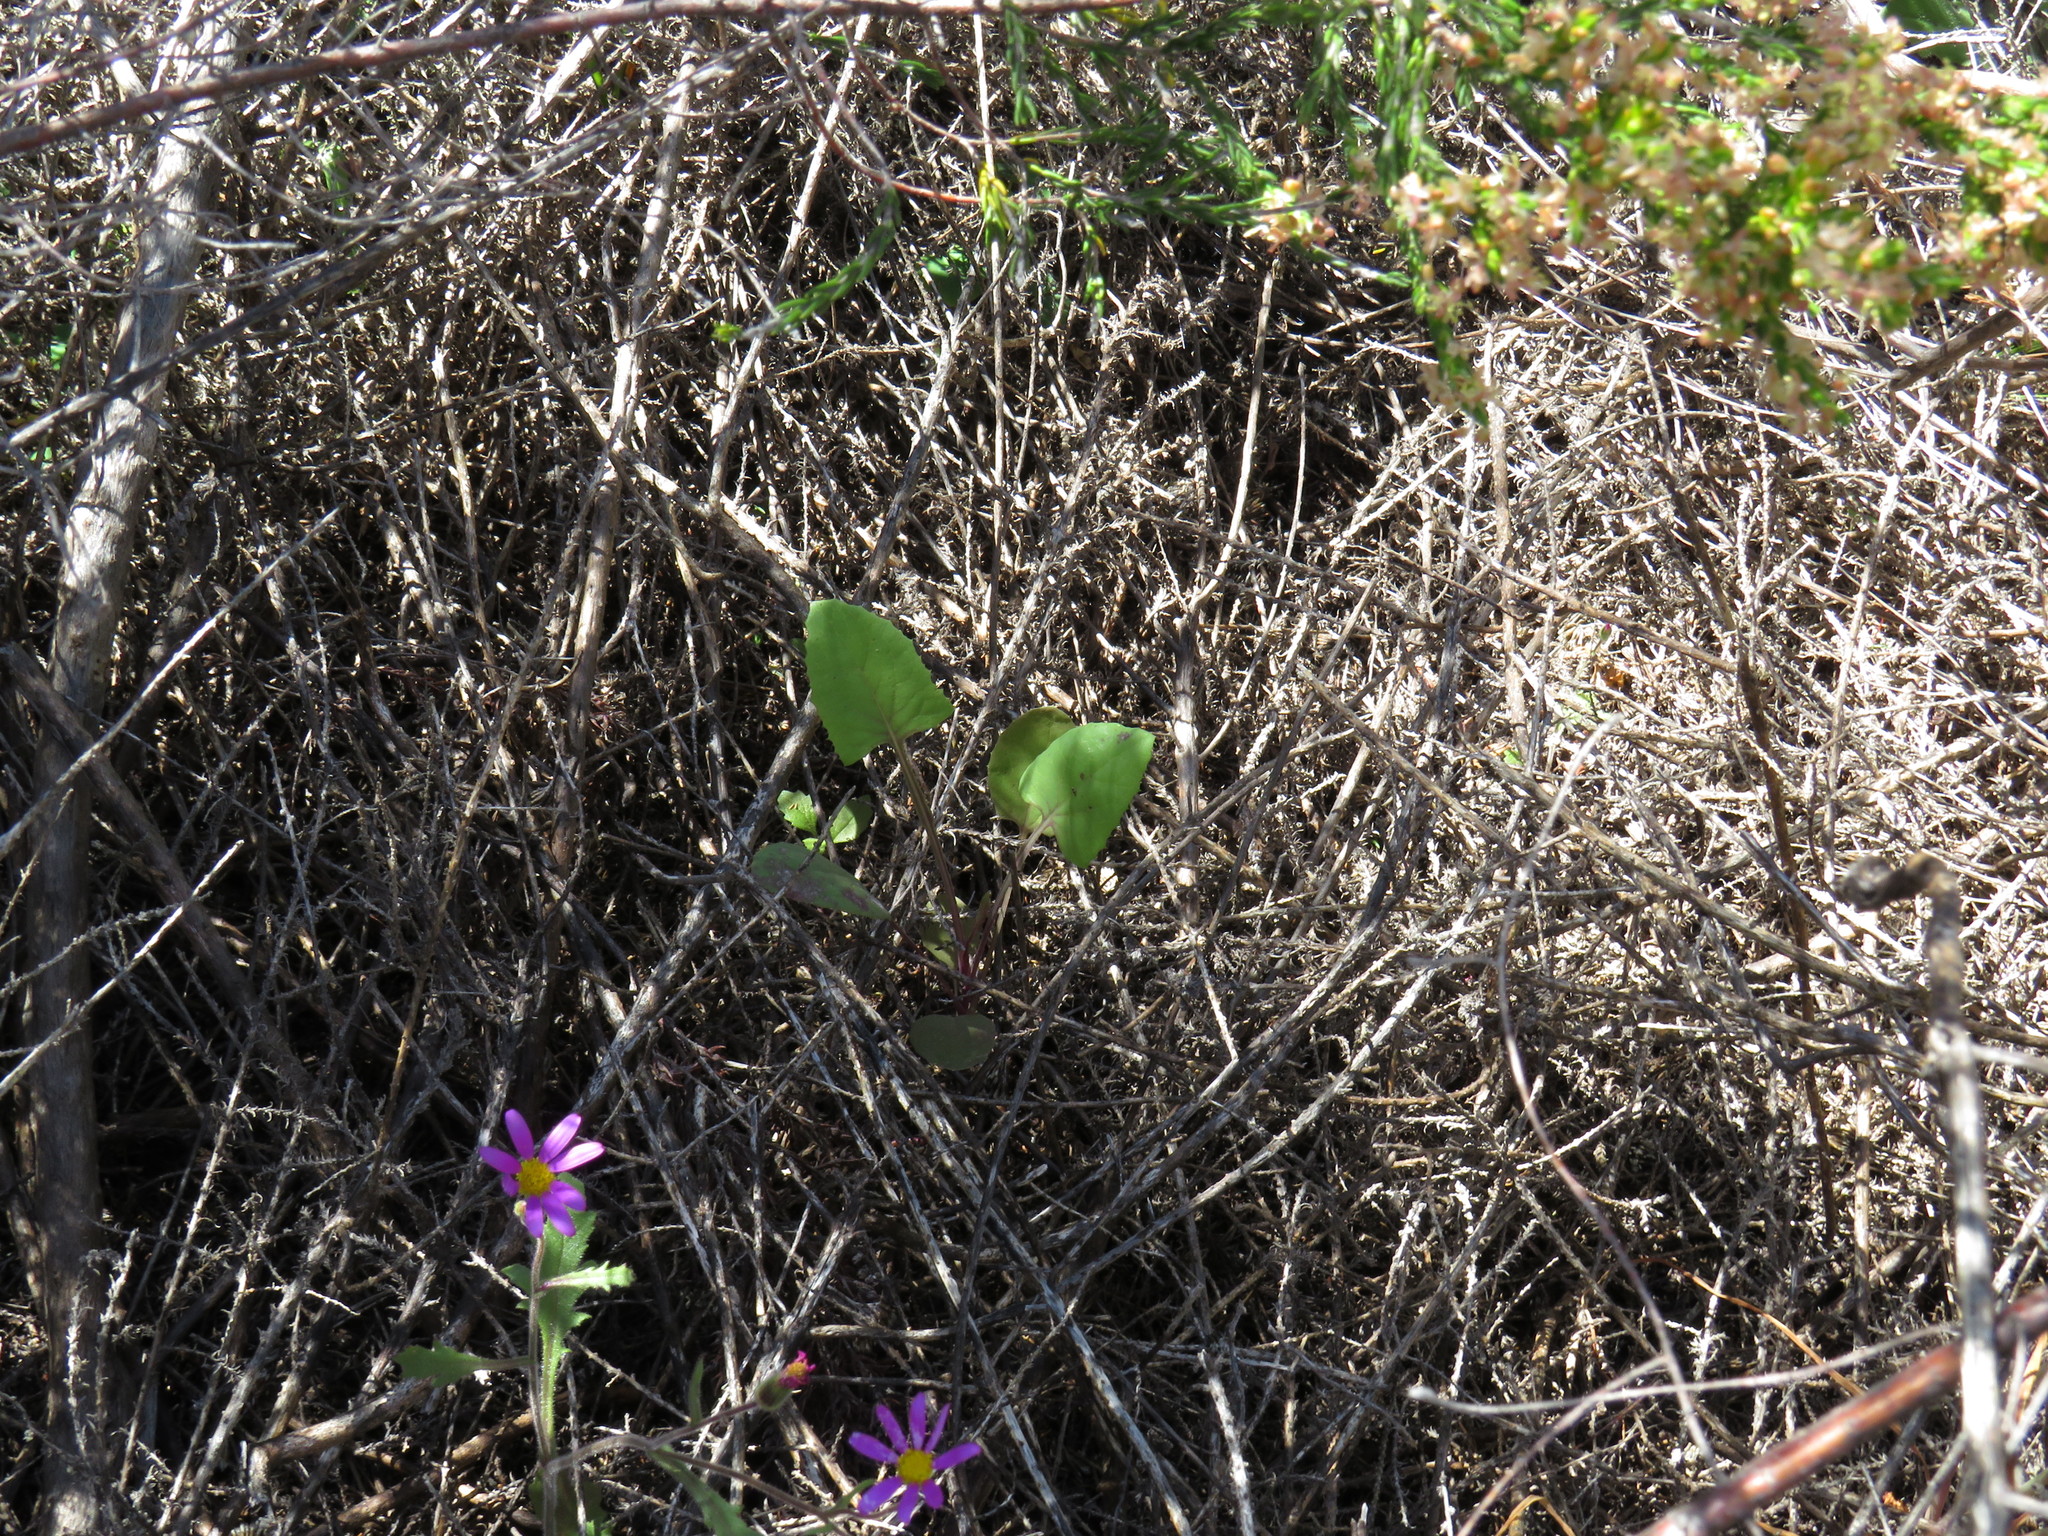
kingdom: Plantae
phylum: Tracheophyta
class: Magnoliopsida
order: Asterales
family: Asteraceae
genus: Sonchus
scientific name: Sonchus oleraceus
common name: Common sowthistle
